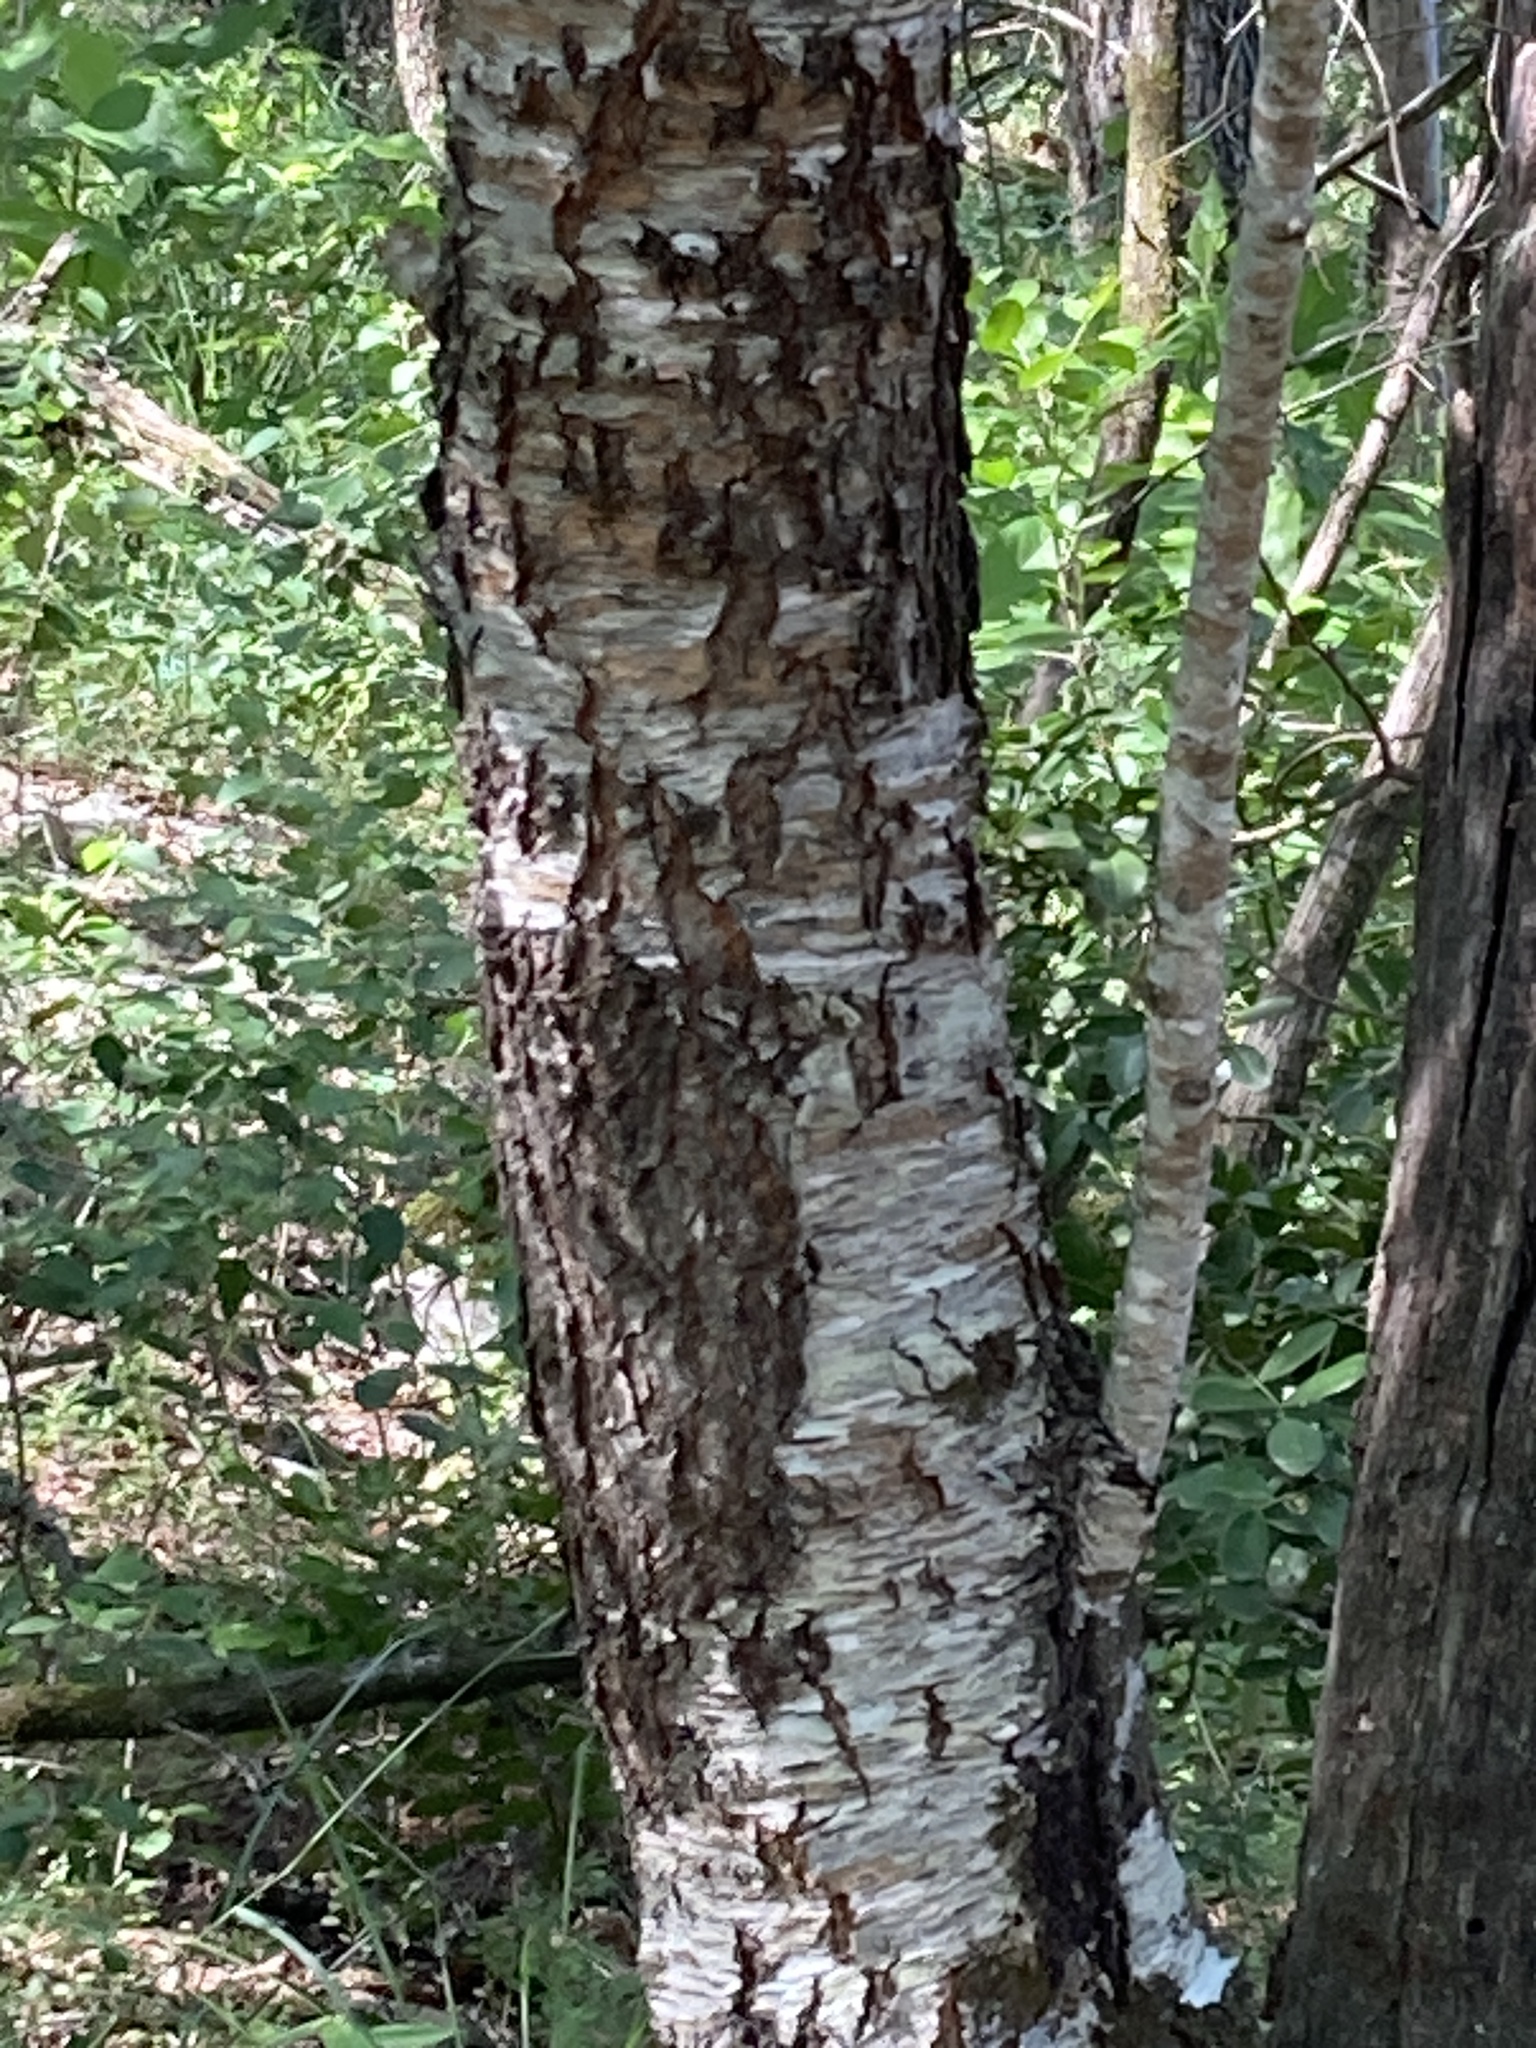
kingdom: Plantae
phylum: Tracheophyta
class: Magnoliopsida
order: Rosales
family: Rosaceae
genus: Prunus
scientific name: Prunus serotina
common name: Black cherry
